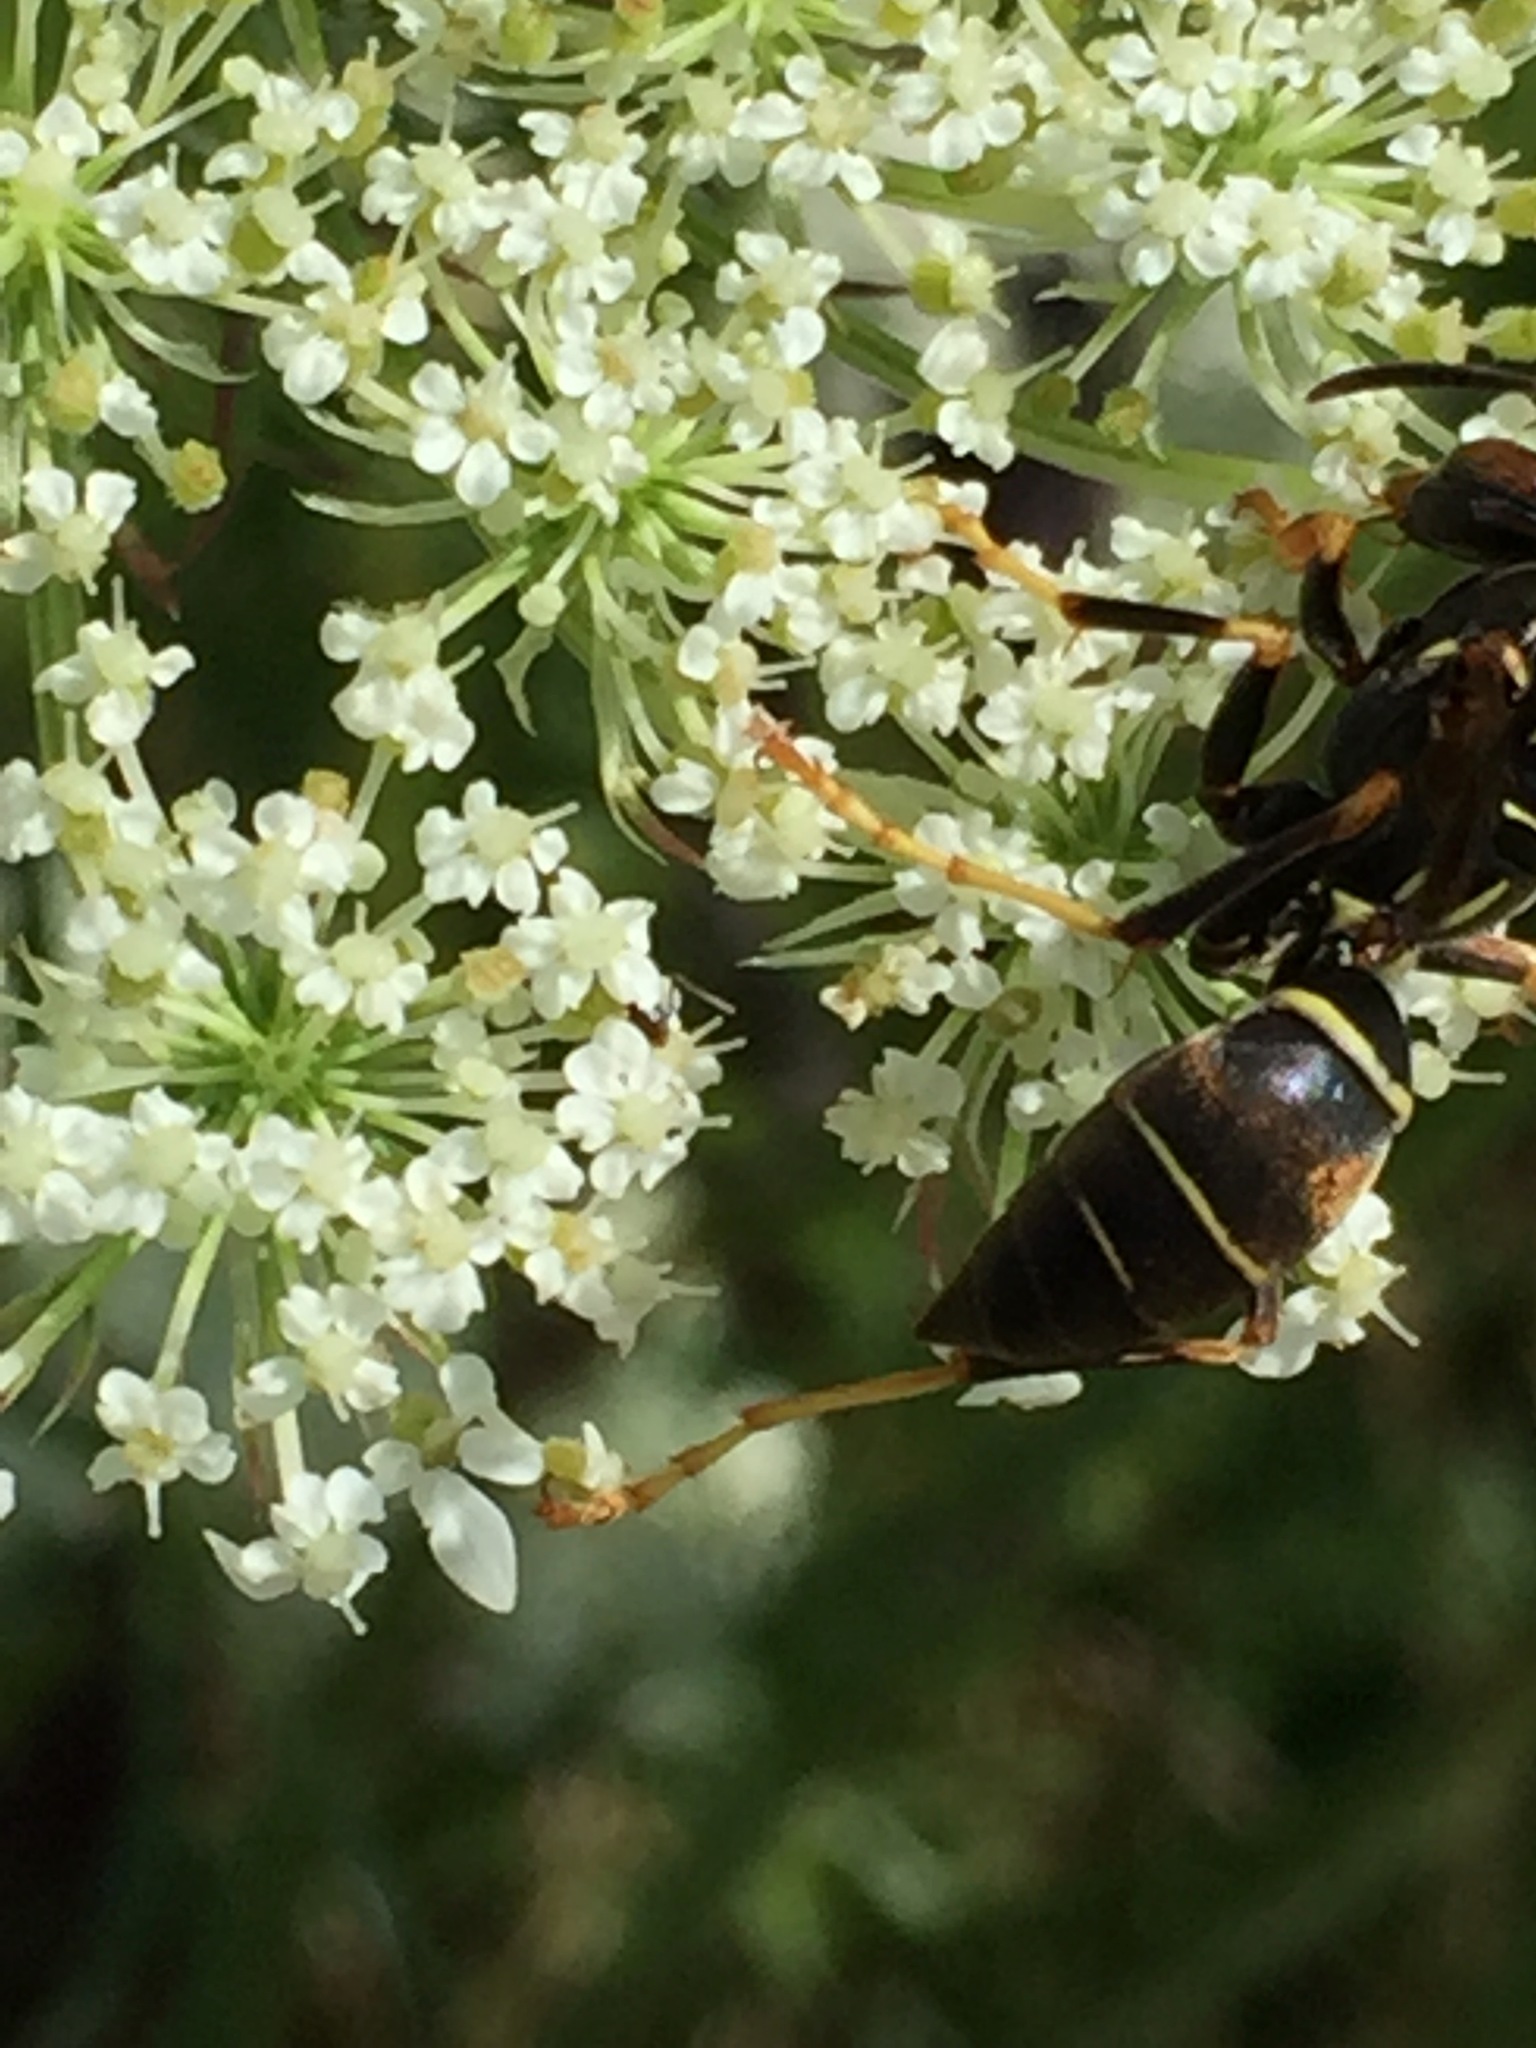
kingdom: Animalia
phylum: Arthropoda
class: Insecta
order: Hymenoptera
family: Eumenidae
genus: Polistes
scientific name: Polistes fuscatus
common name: Dark paper wasp
